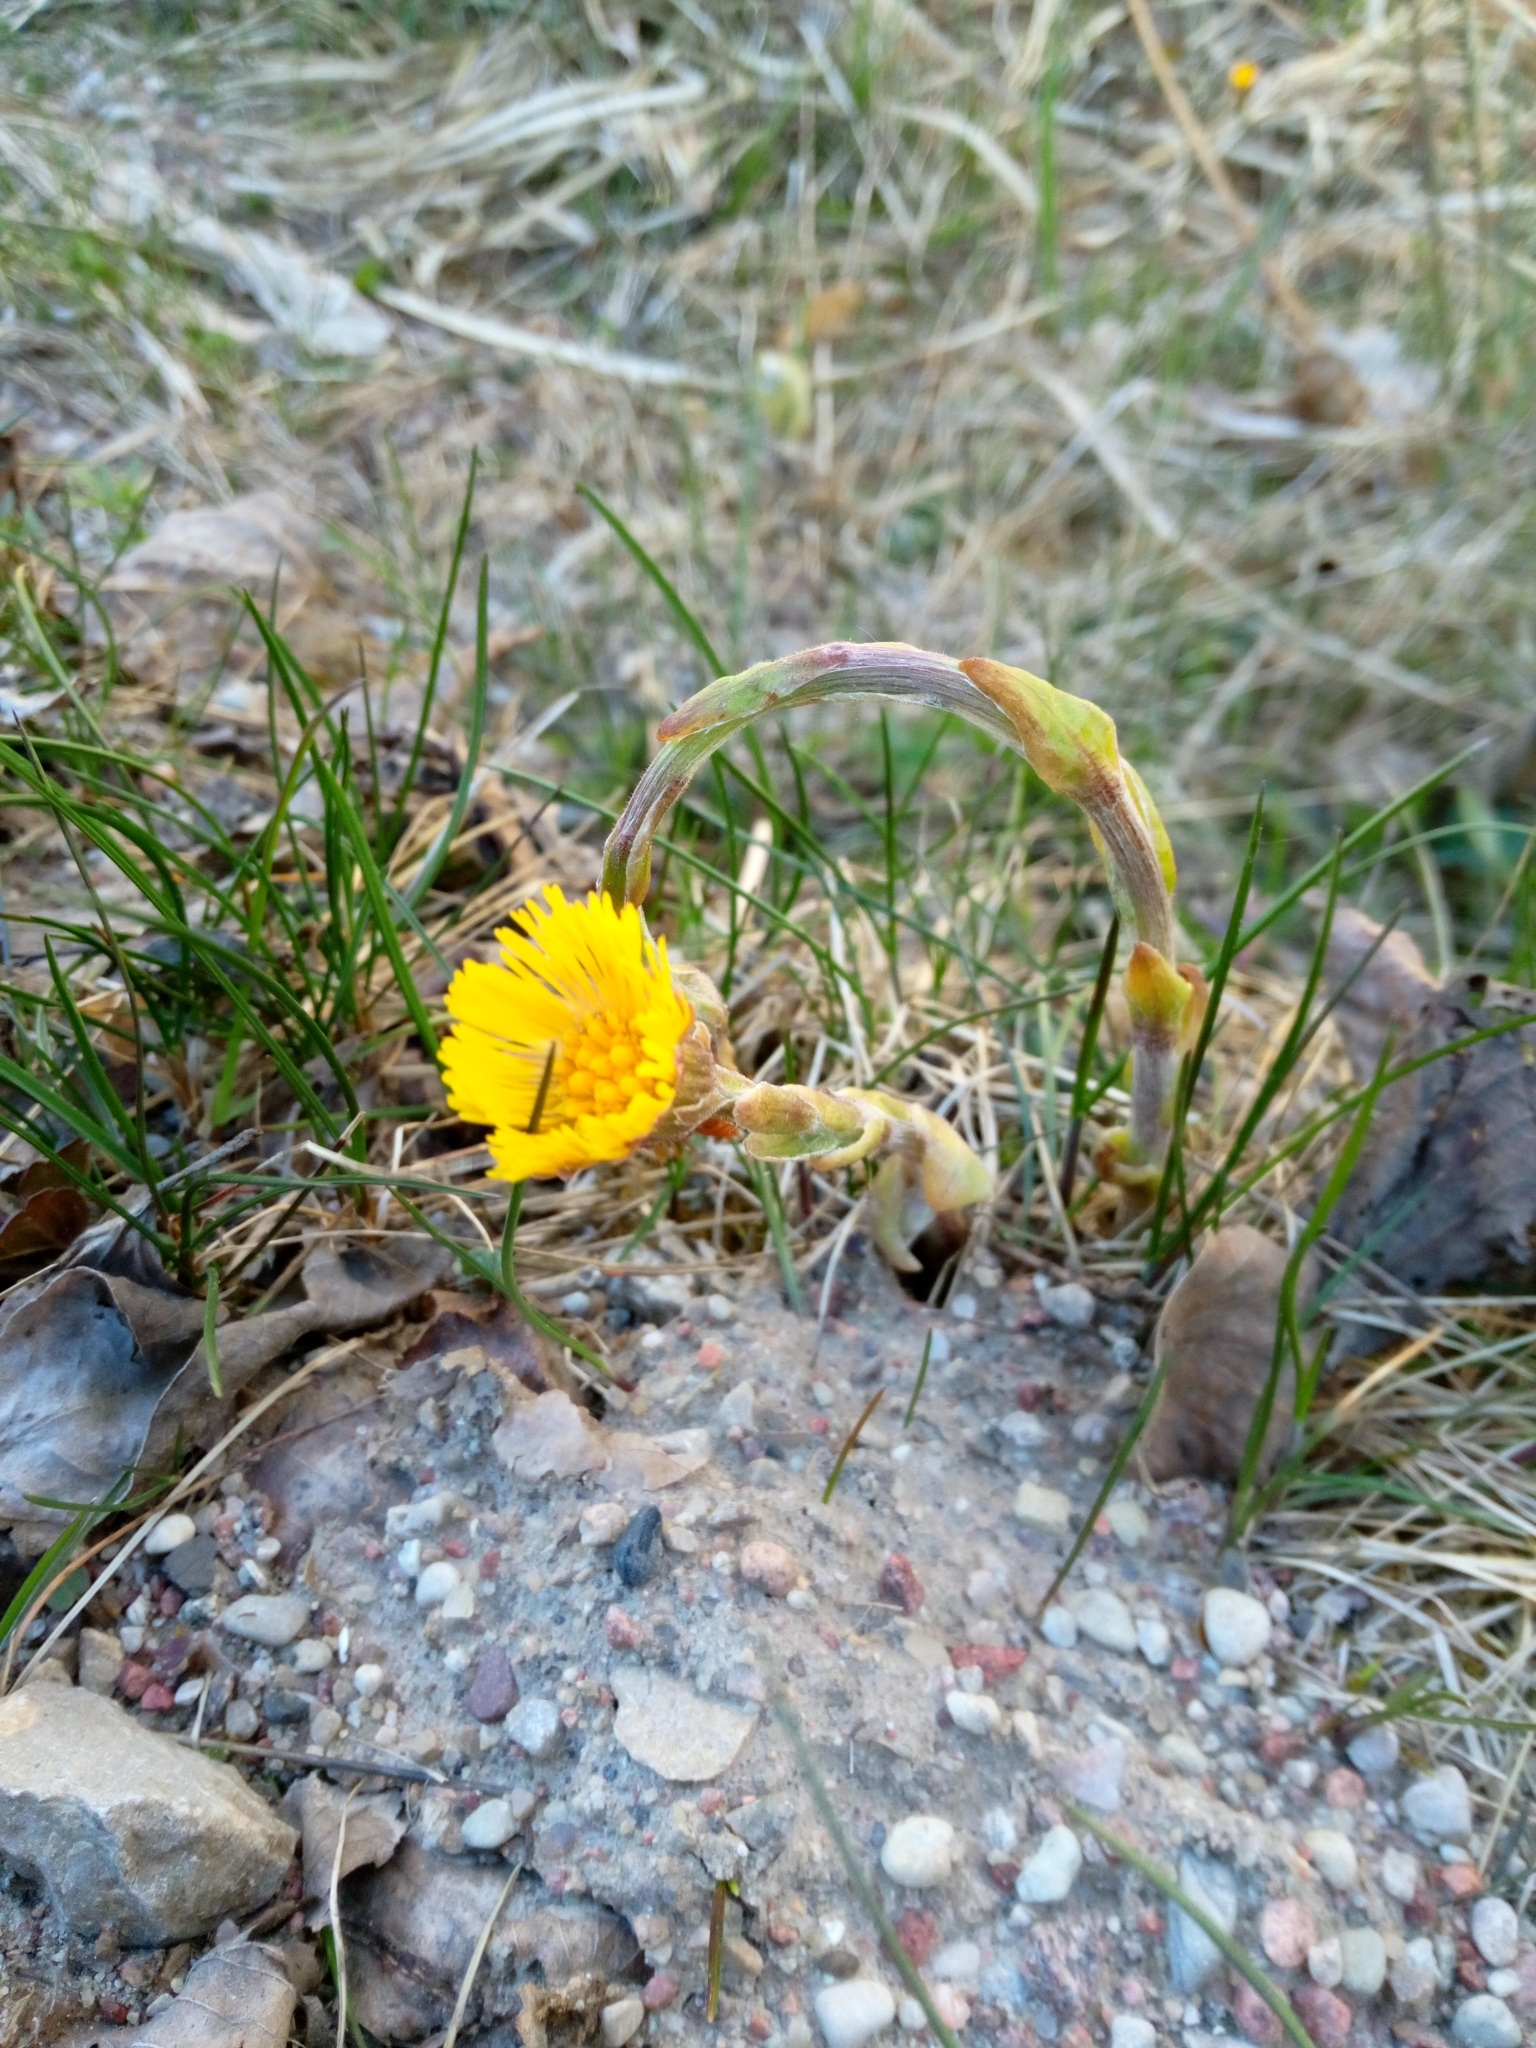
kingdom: Plantae
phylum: Tracheophyta
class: Magnoliopsida
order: Asterales
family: Asteraceae
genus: Tussilago
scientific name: Tussilago farfara
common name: Coltsfoot
